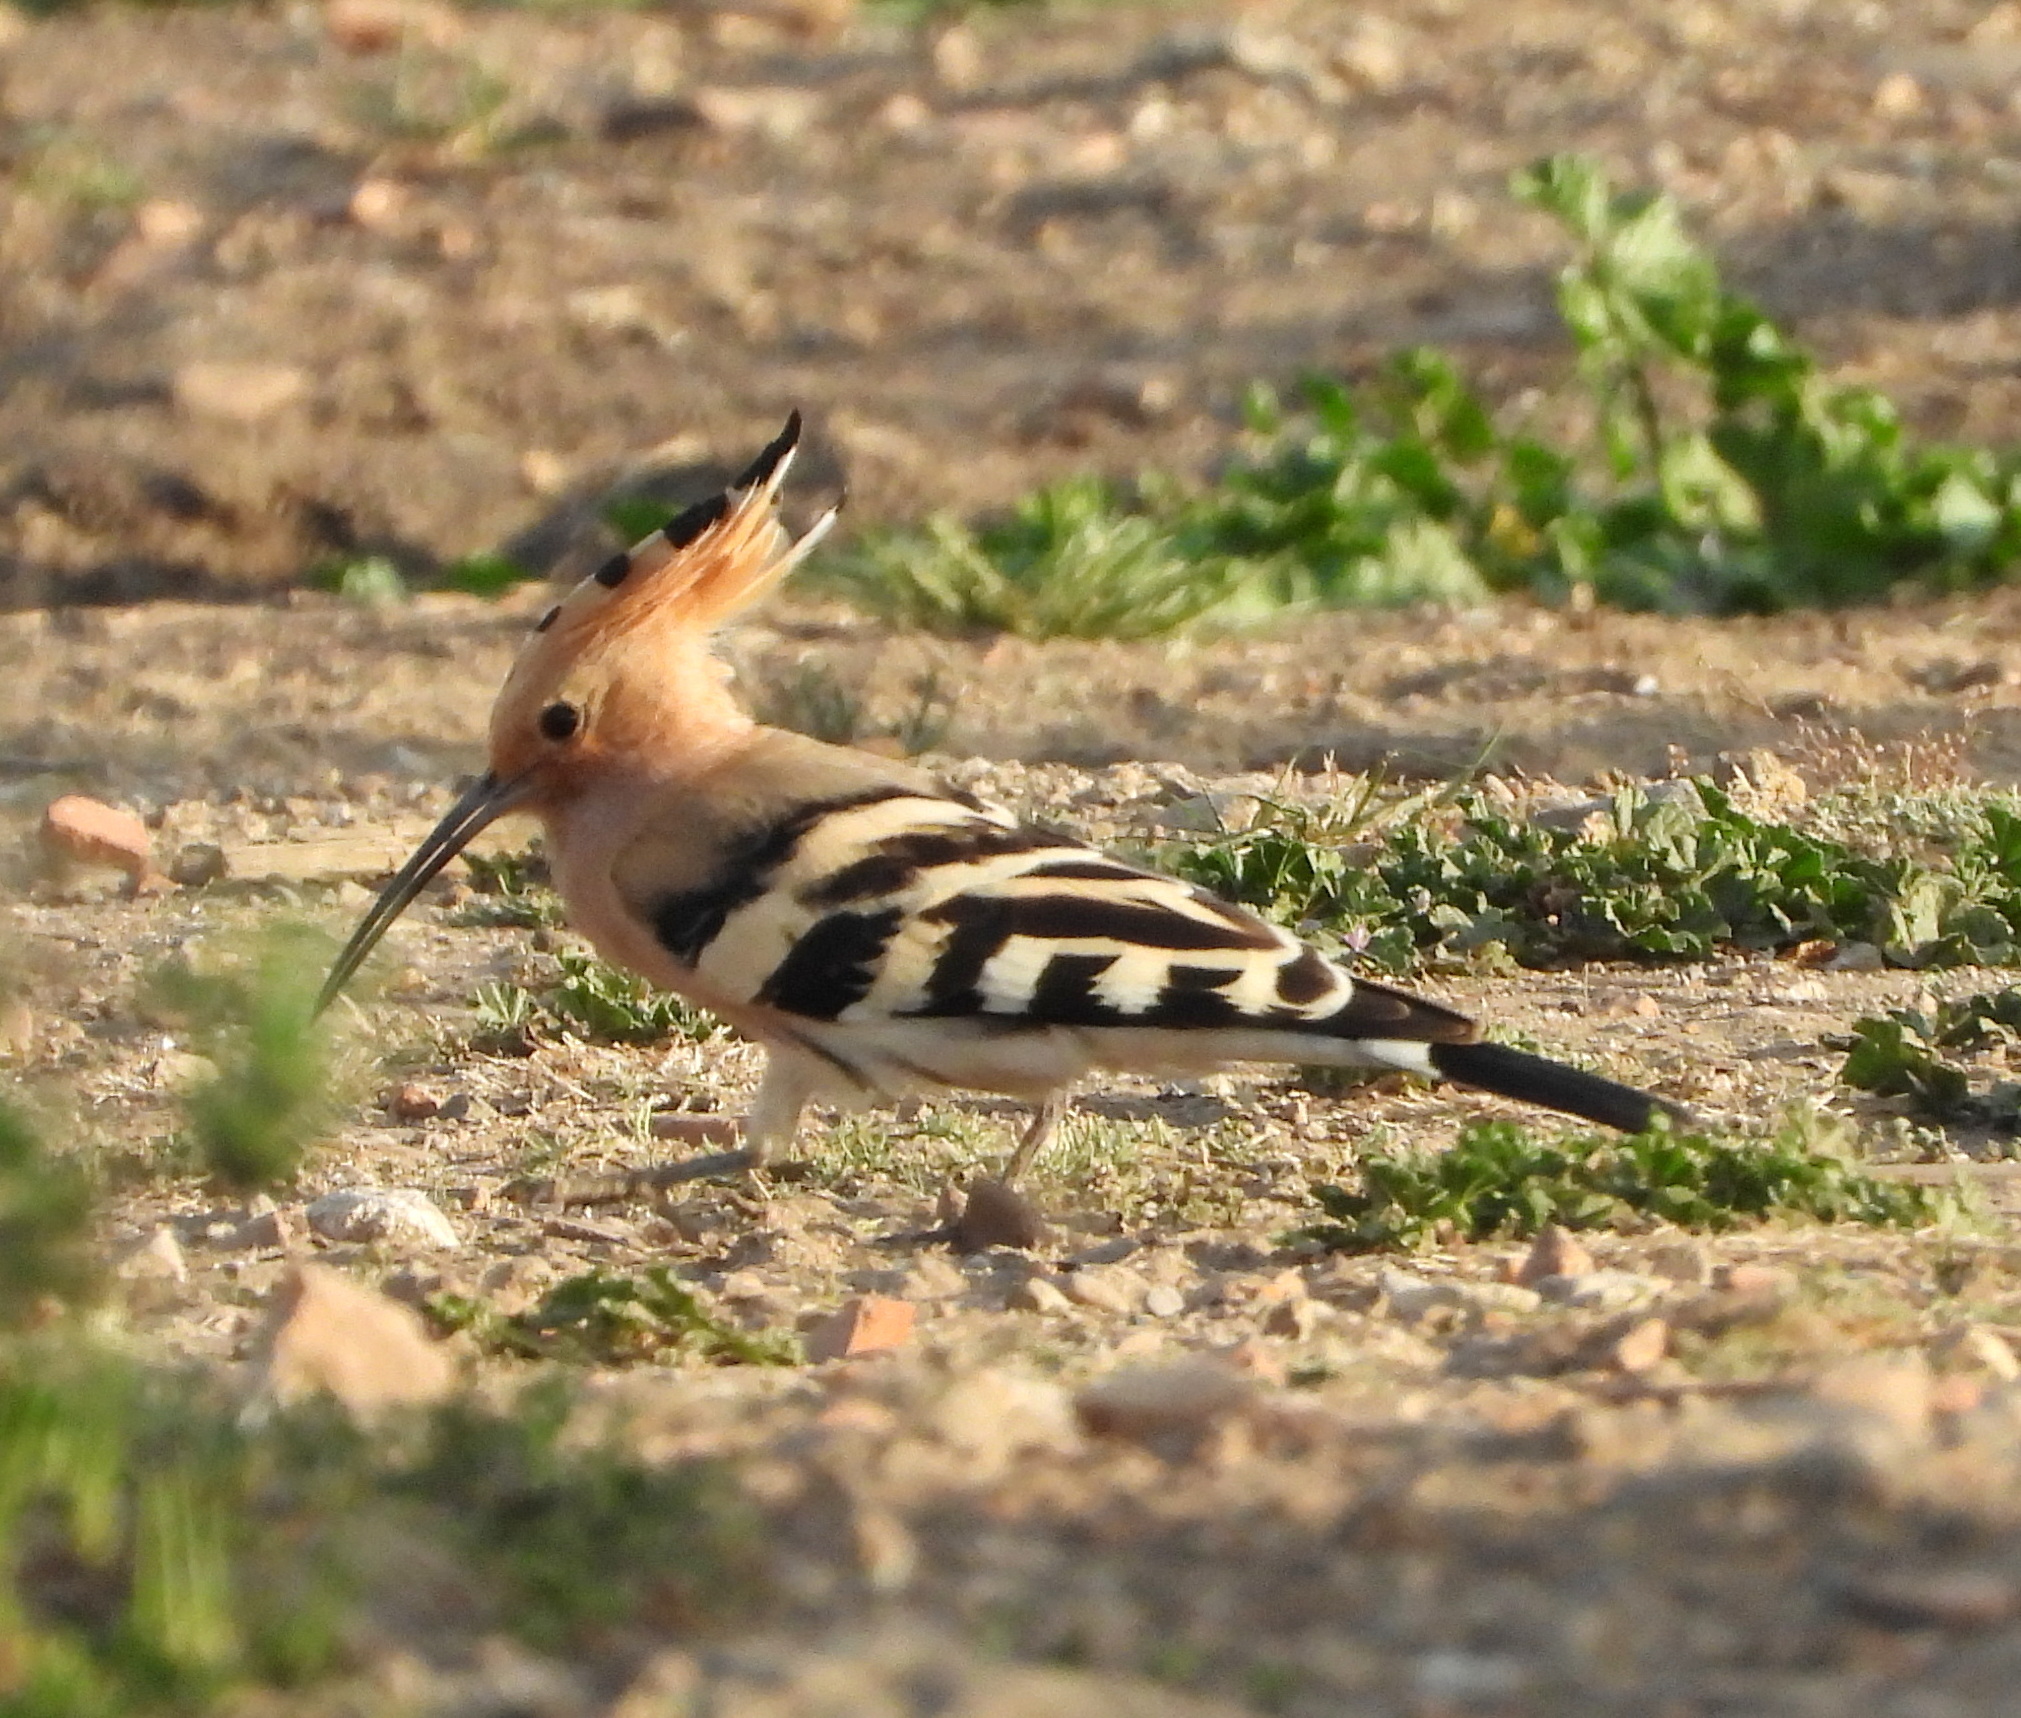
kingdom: Animalia
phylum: Chordata
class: Aves
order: Bucerotiformes
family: Upupidae
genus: Upupa
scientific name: Upupa epops
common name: Eurasian hoopoe
